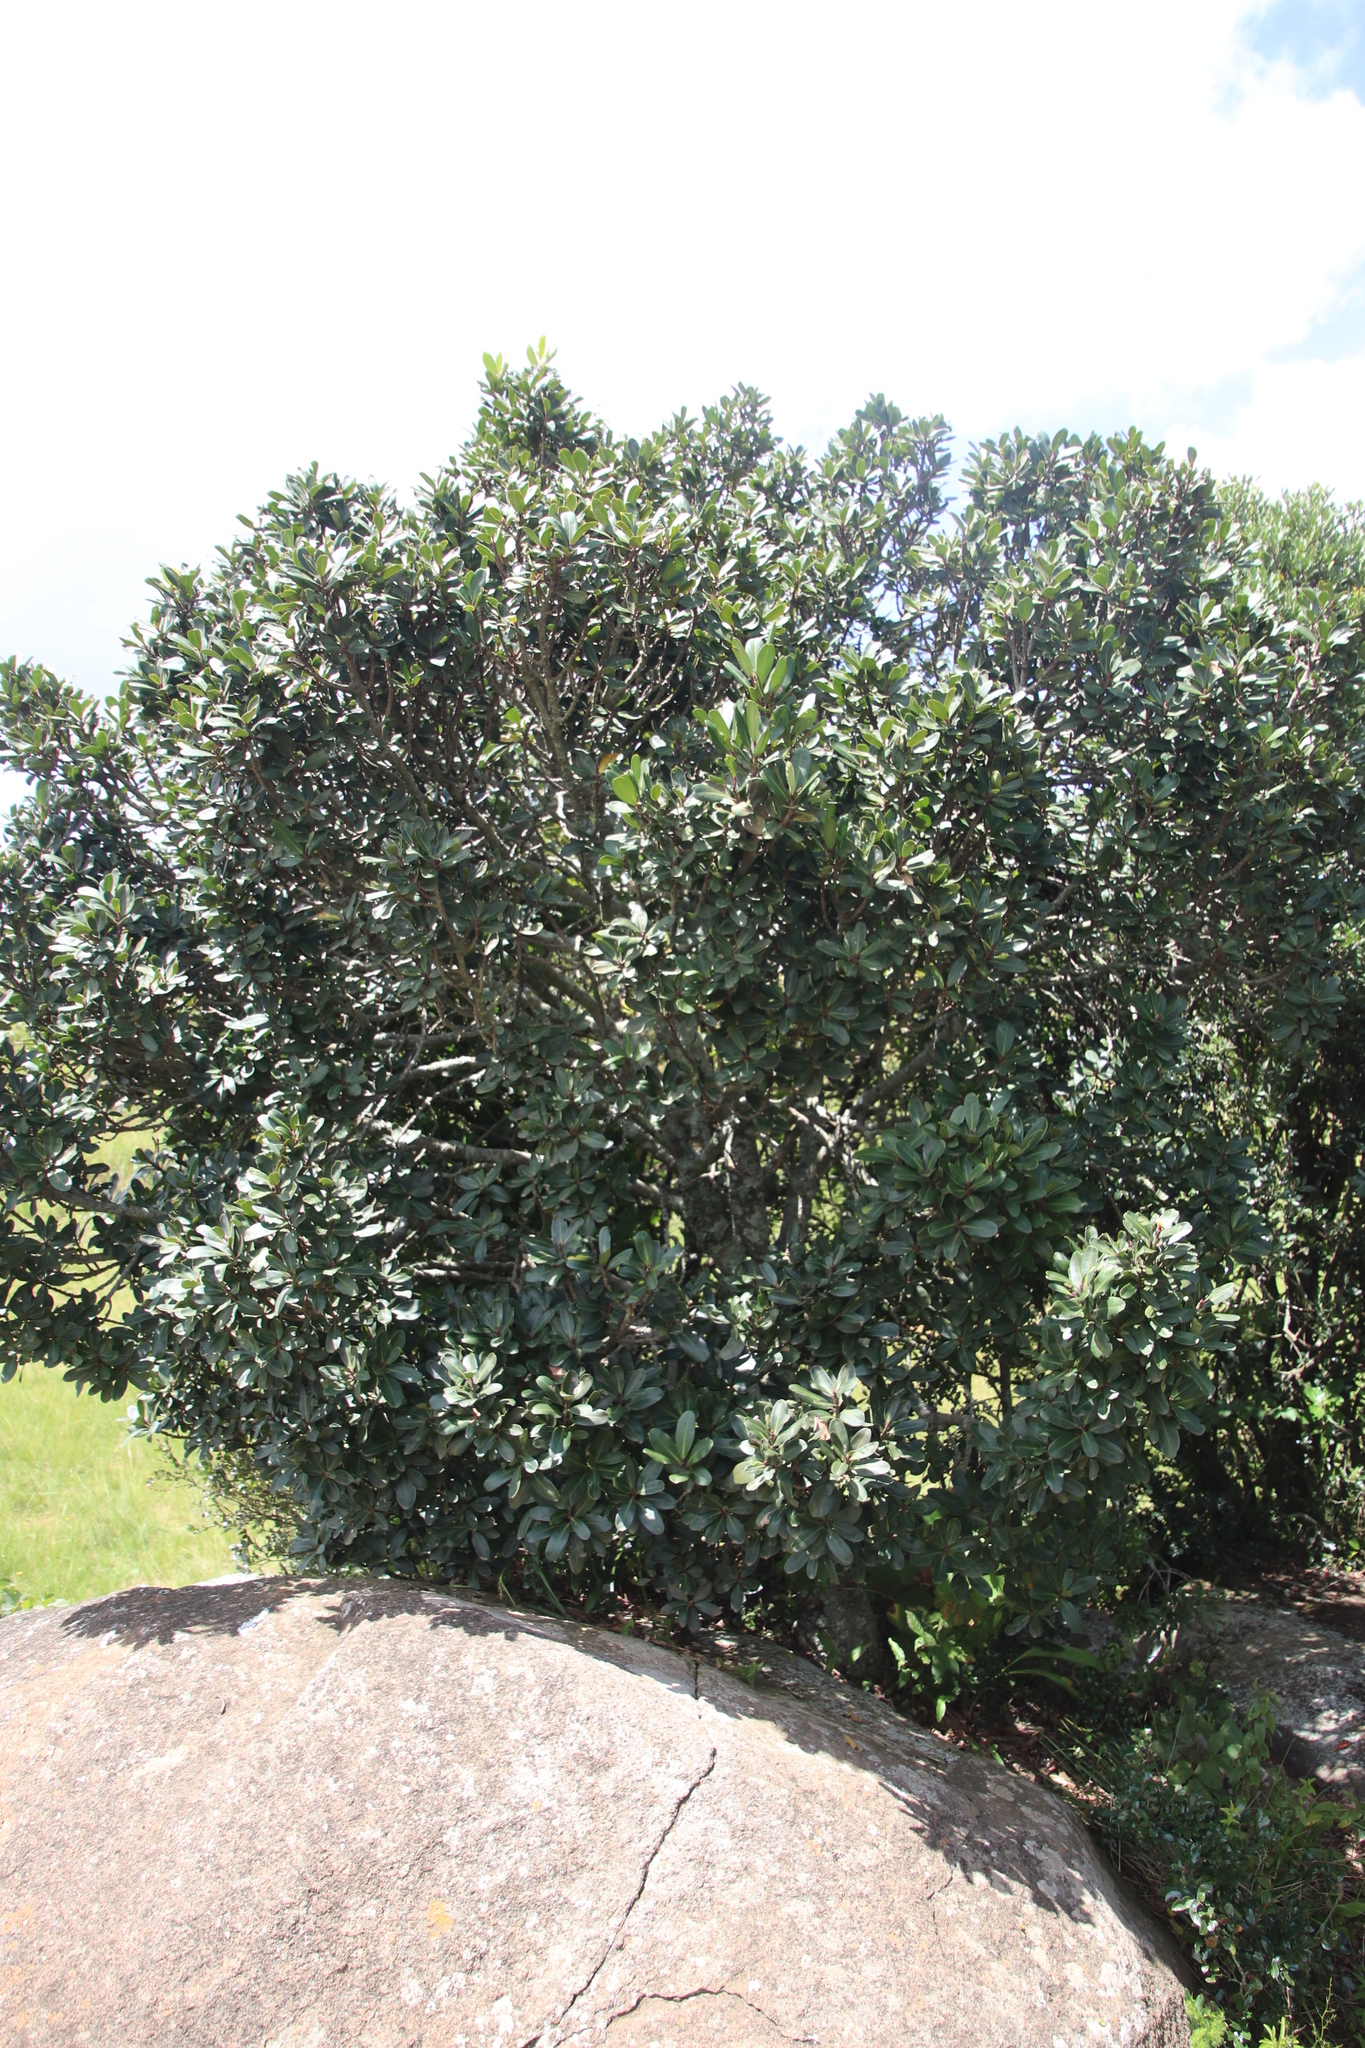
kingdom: Plantae
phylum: Tracheophyta
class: Magnoliopsida
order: Ericales
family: Primulaceae
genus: Myrsine
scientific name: Myrsine melanophloeos
